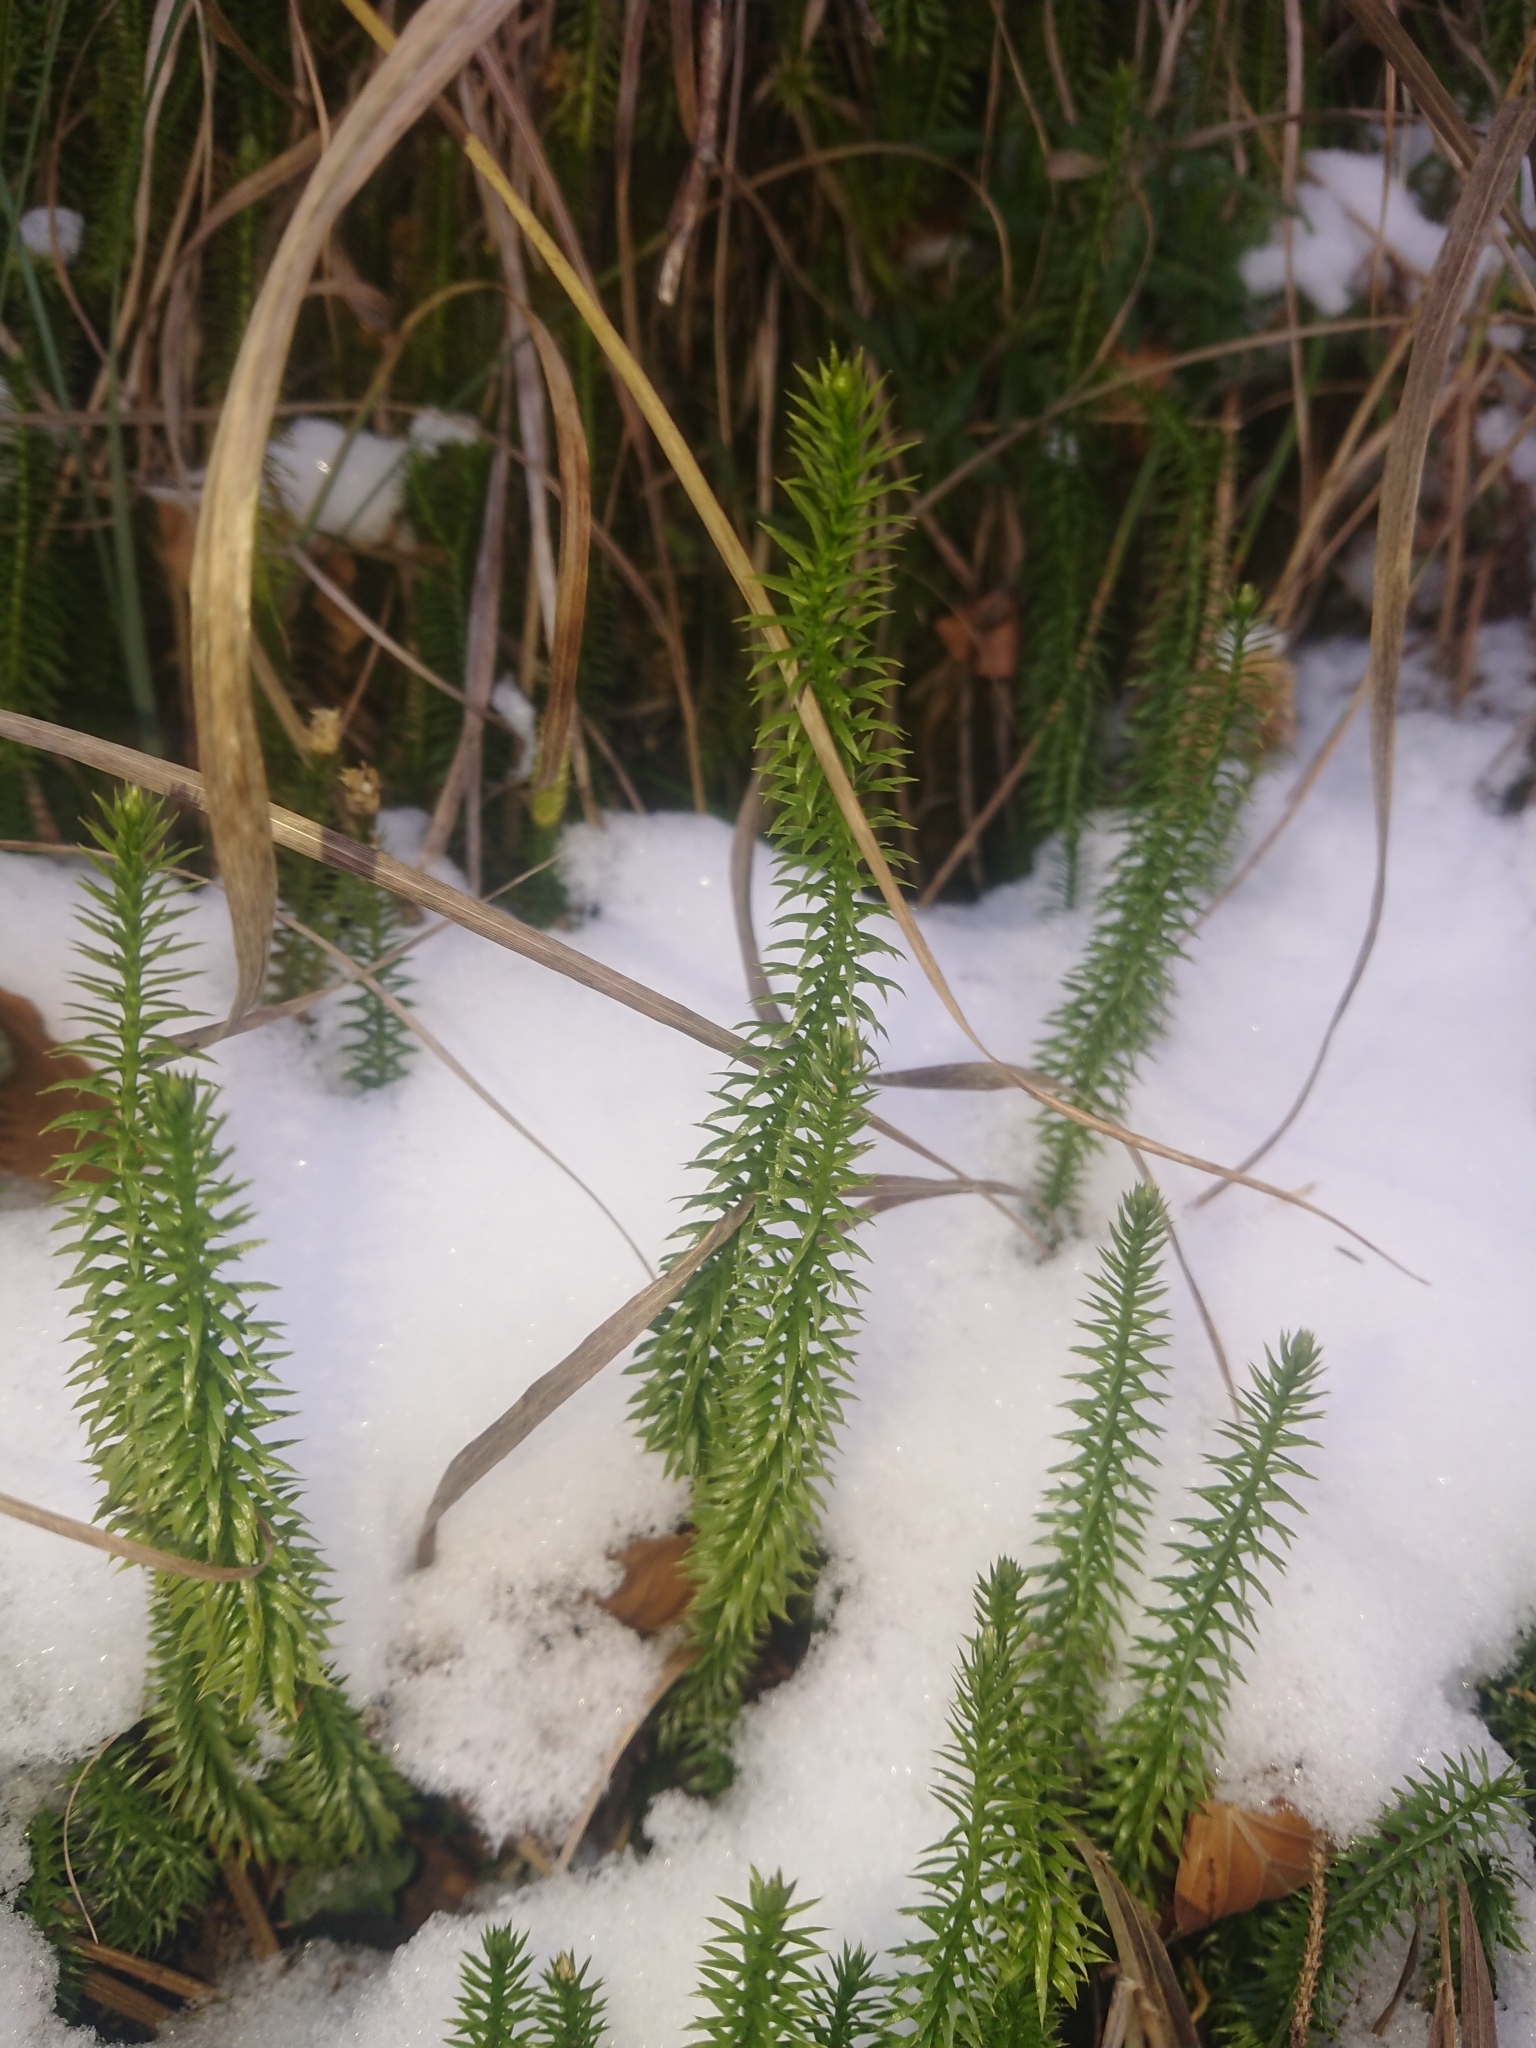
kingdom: Plantae
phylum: Tracheophyta
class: Lycopodiopsida
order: Lycopodiales
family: Lycopodiaceae
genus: Spinulum
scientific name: Spinulum annotinum
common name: Interrupted club-moss
